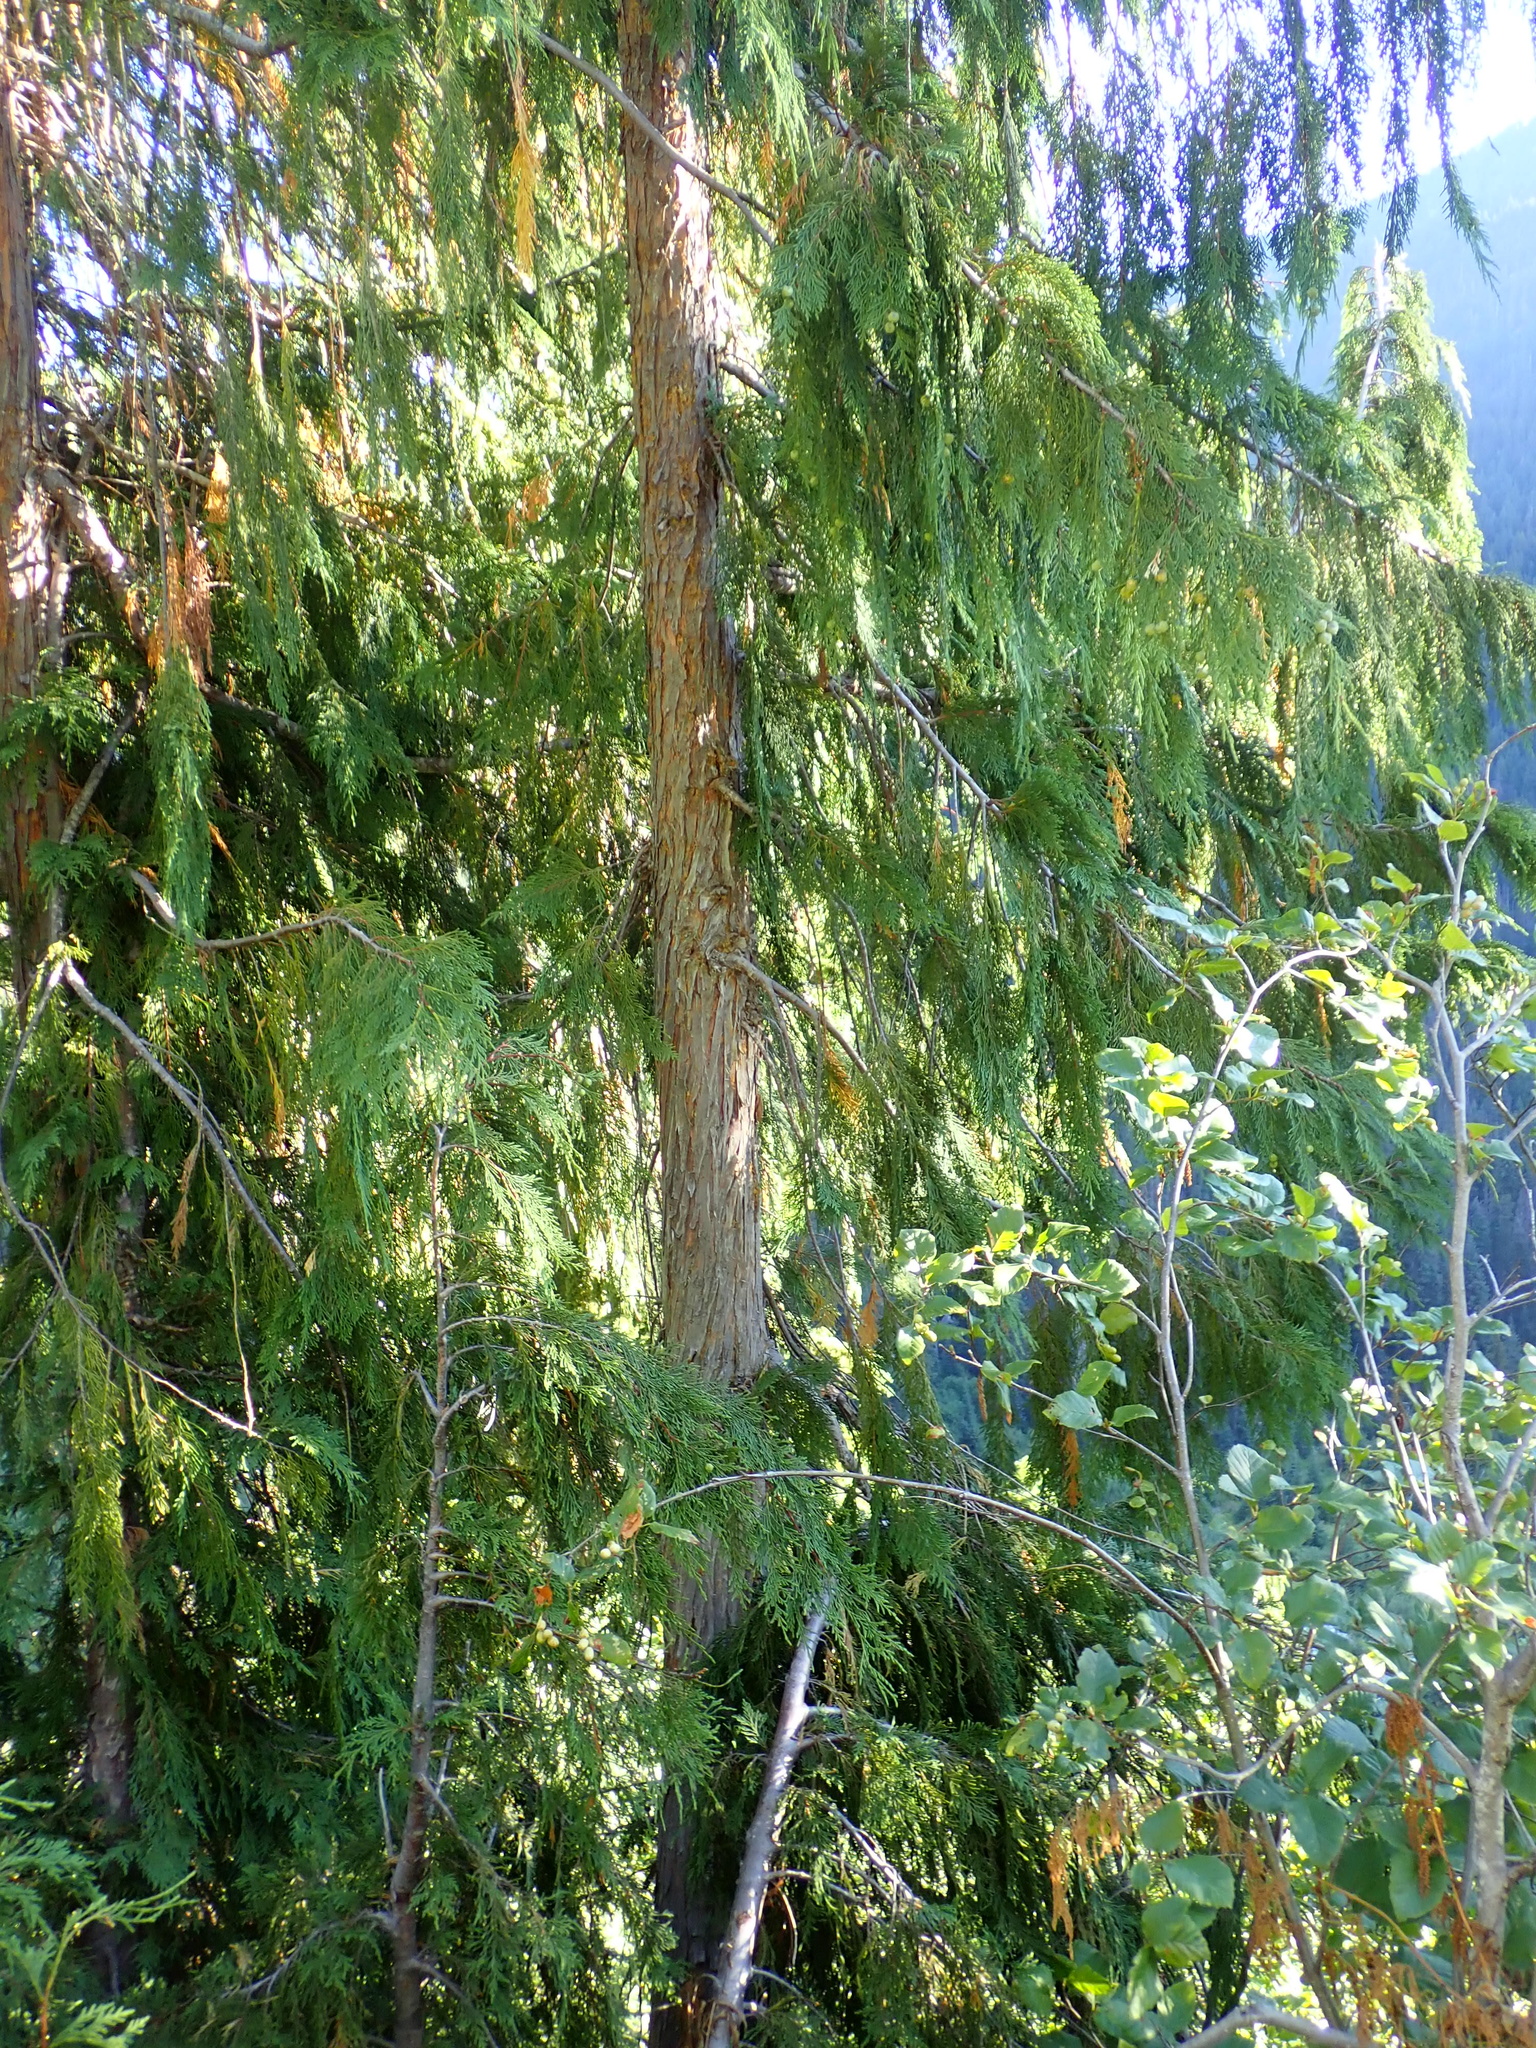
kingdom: Plantae
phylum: Tracheophyta
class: Pinopsida
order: Pinales
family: Cupressaceae
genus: Xanthocyparis
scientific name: Xanthocyparis nootkatensis
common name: Nootka cypress
